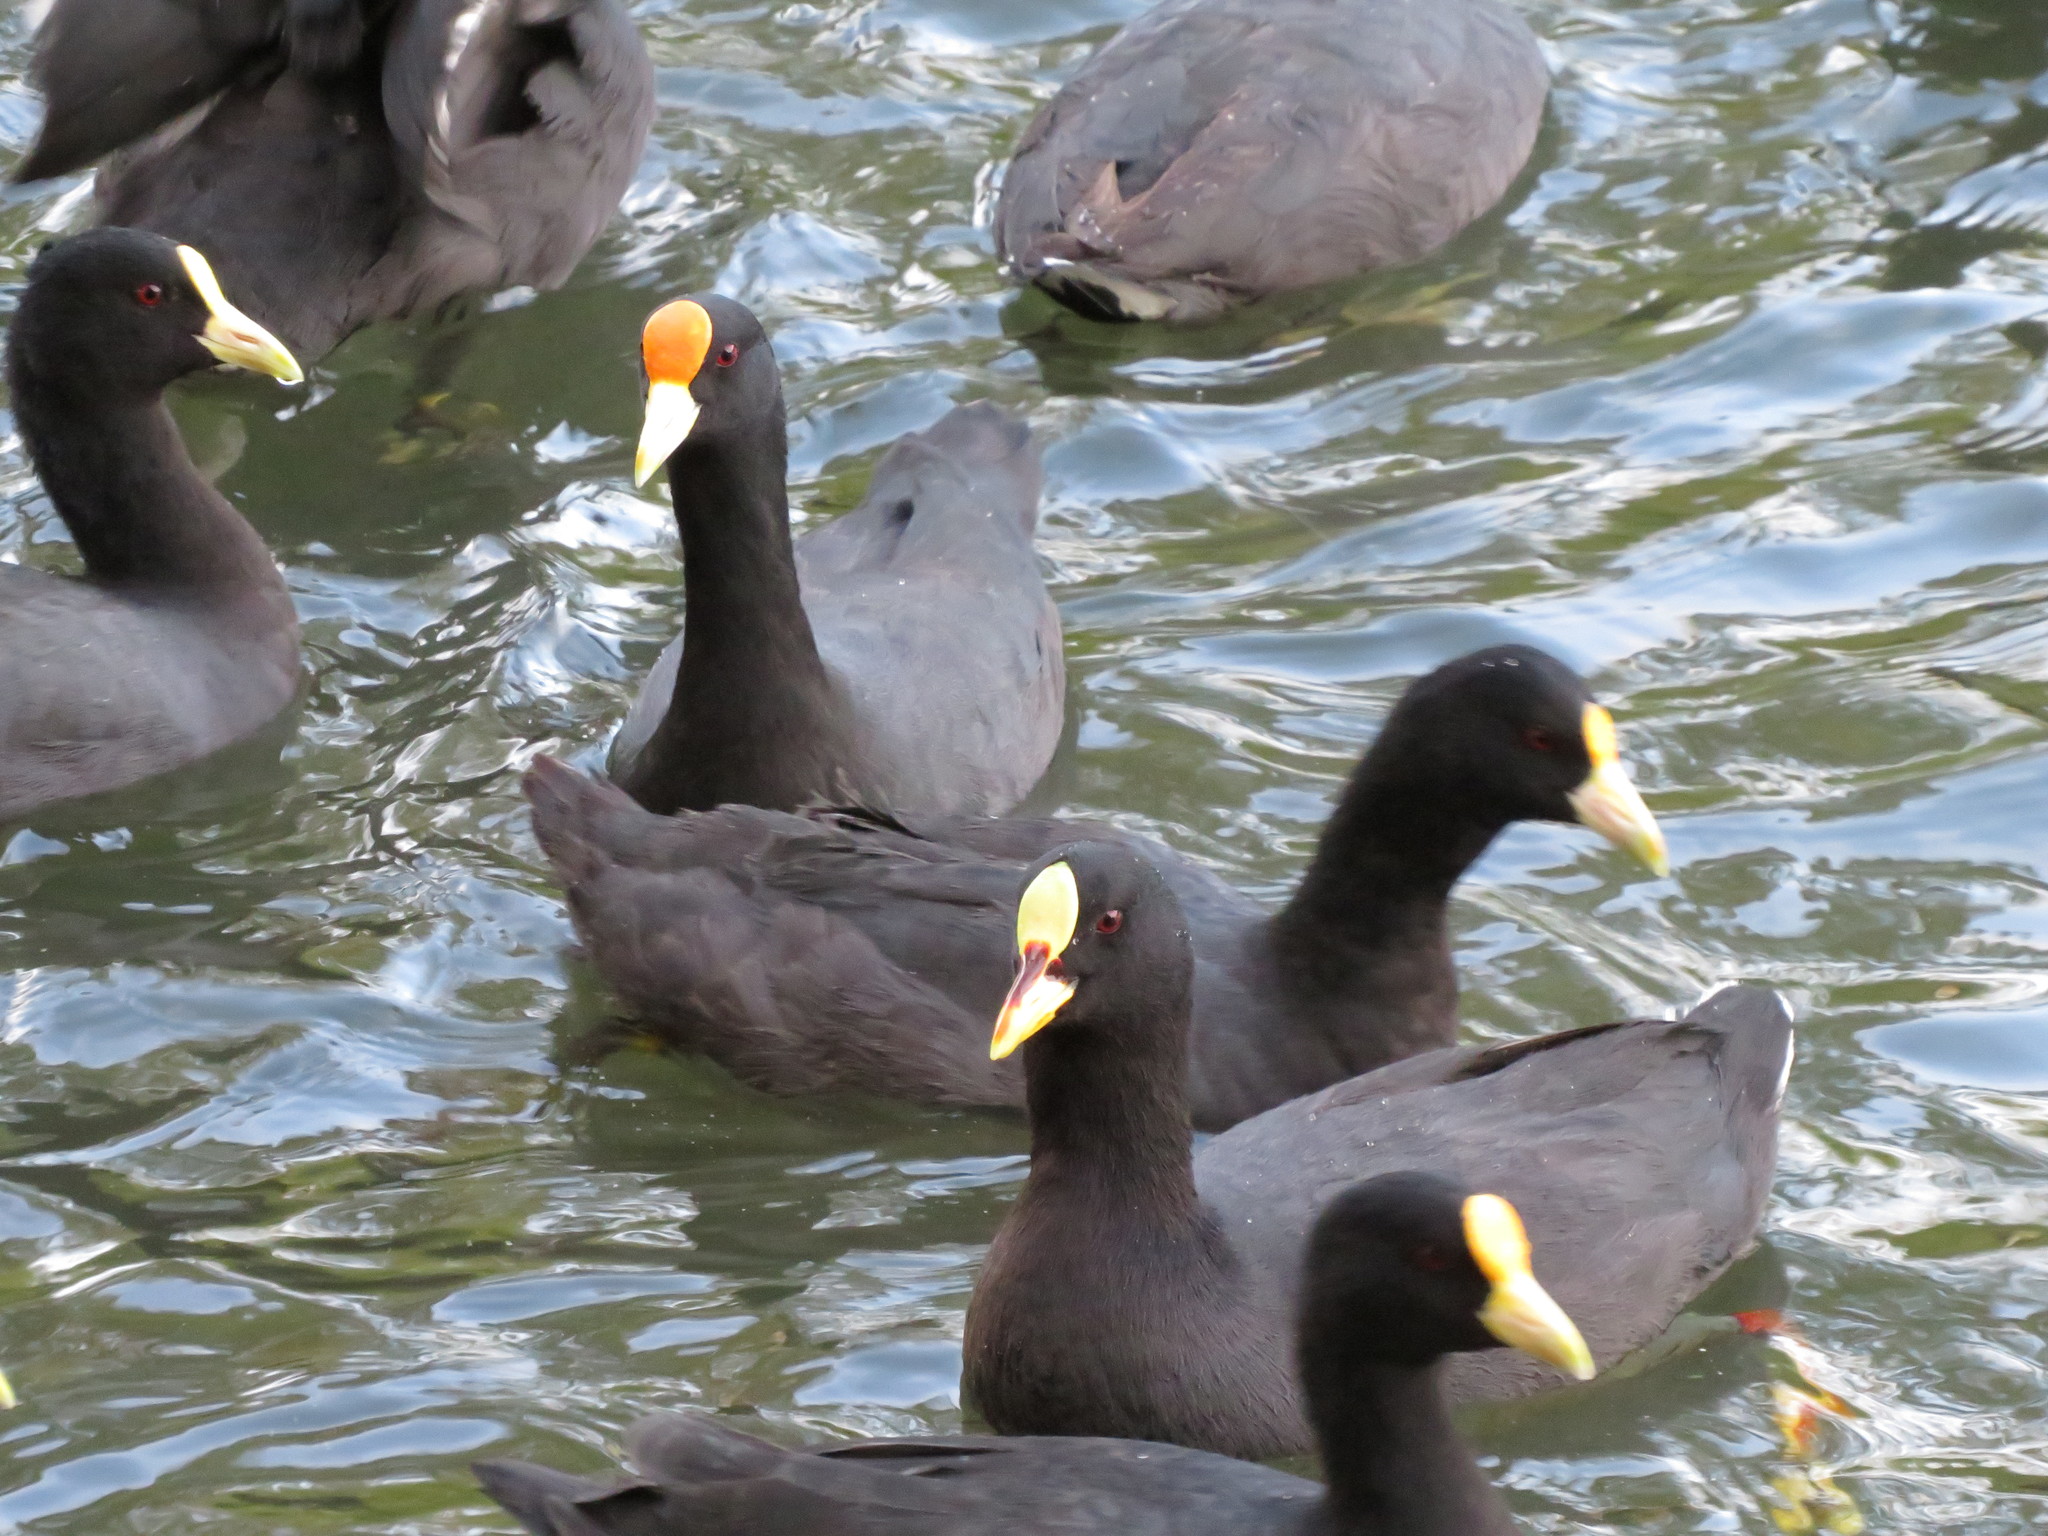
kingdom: Animalia
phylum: Chordata
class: Aves
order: Gruiformes
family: Rallidae
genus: Fulica
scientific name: Fulica armillata
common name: Red-gartered coot
